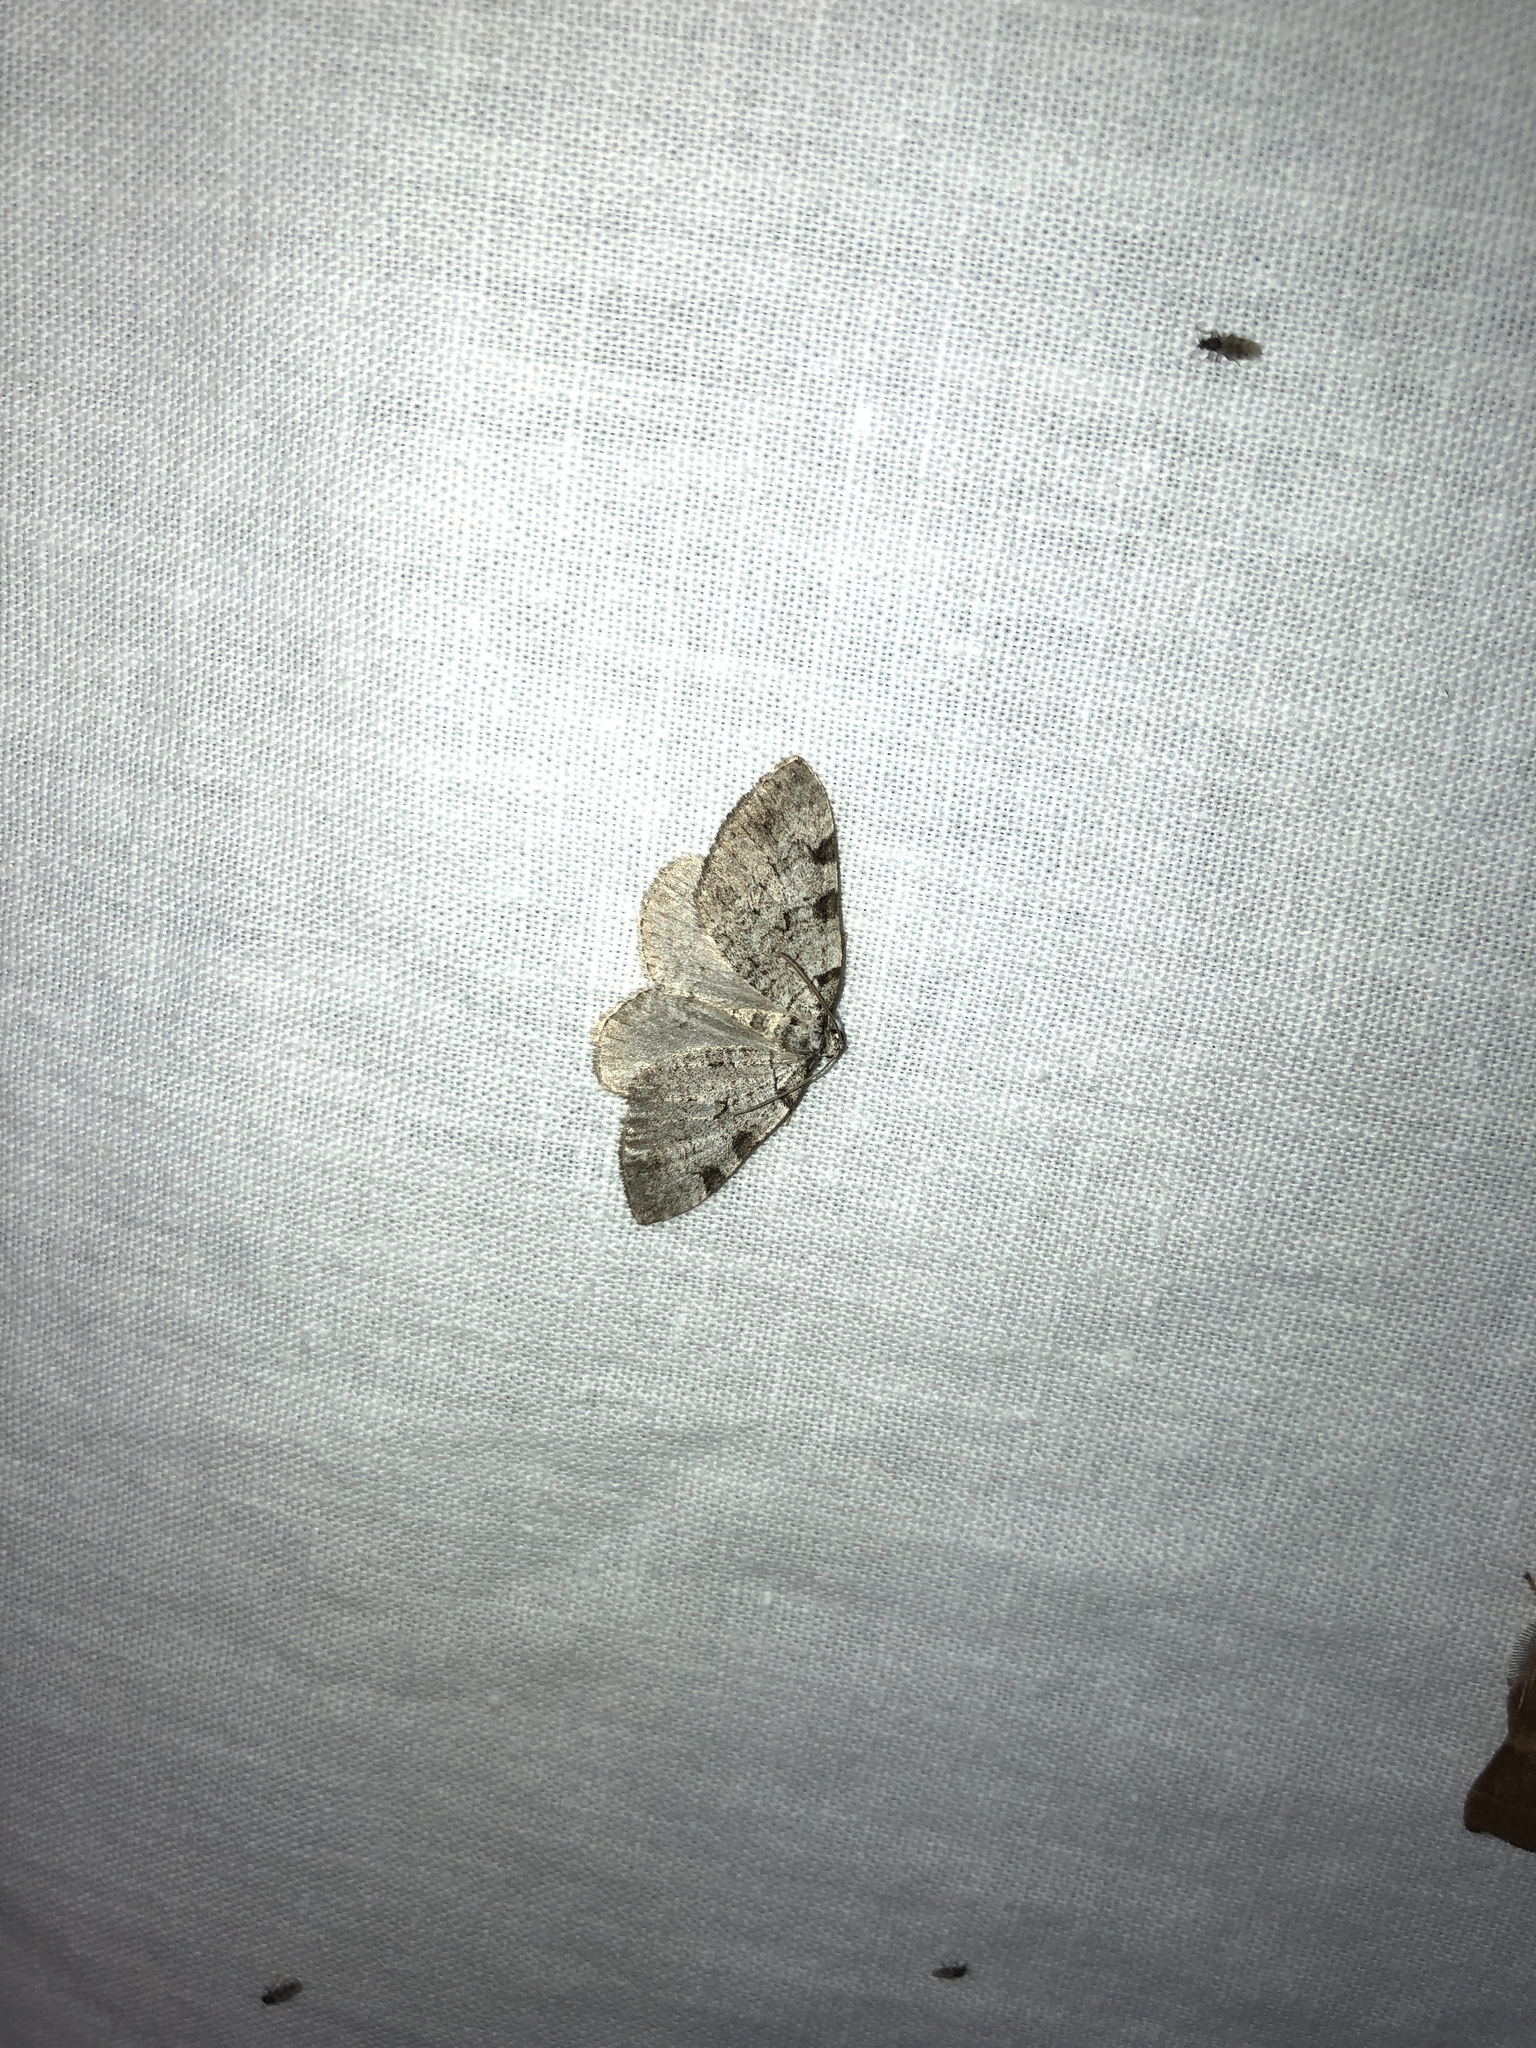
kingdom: Animalia
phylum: Arthropoda
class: Insecta
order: Lepidoptera
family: Geometridae
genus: Perizoma
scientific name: Perizoma costiguttata
